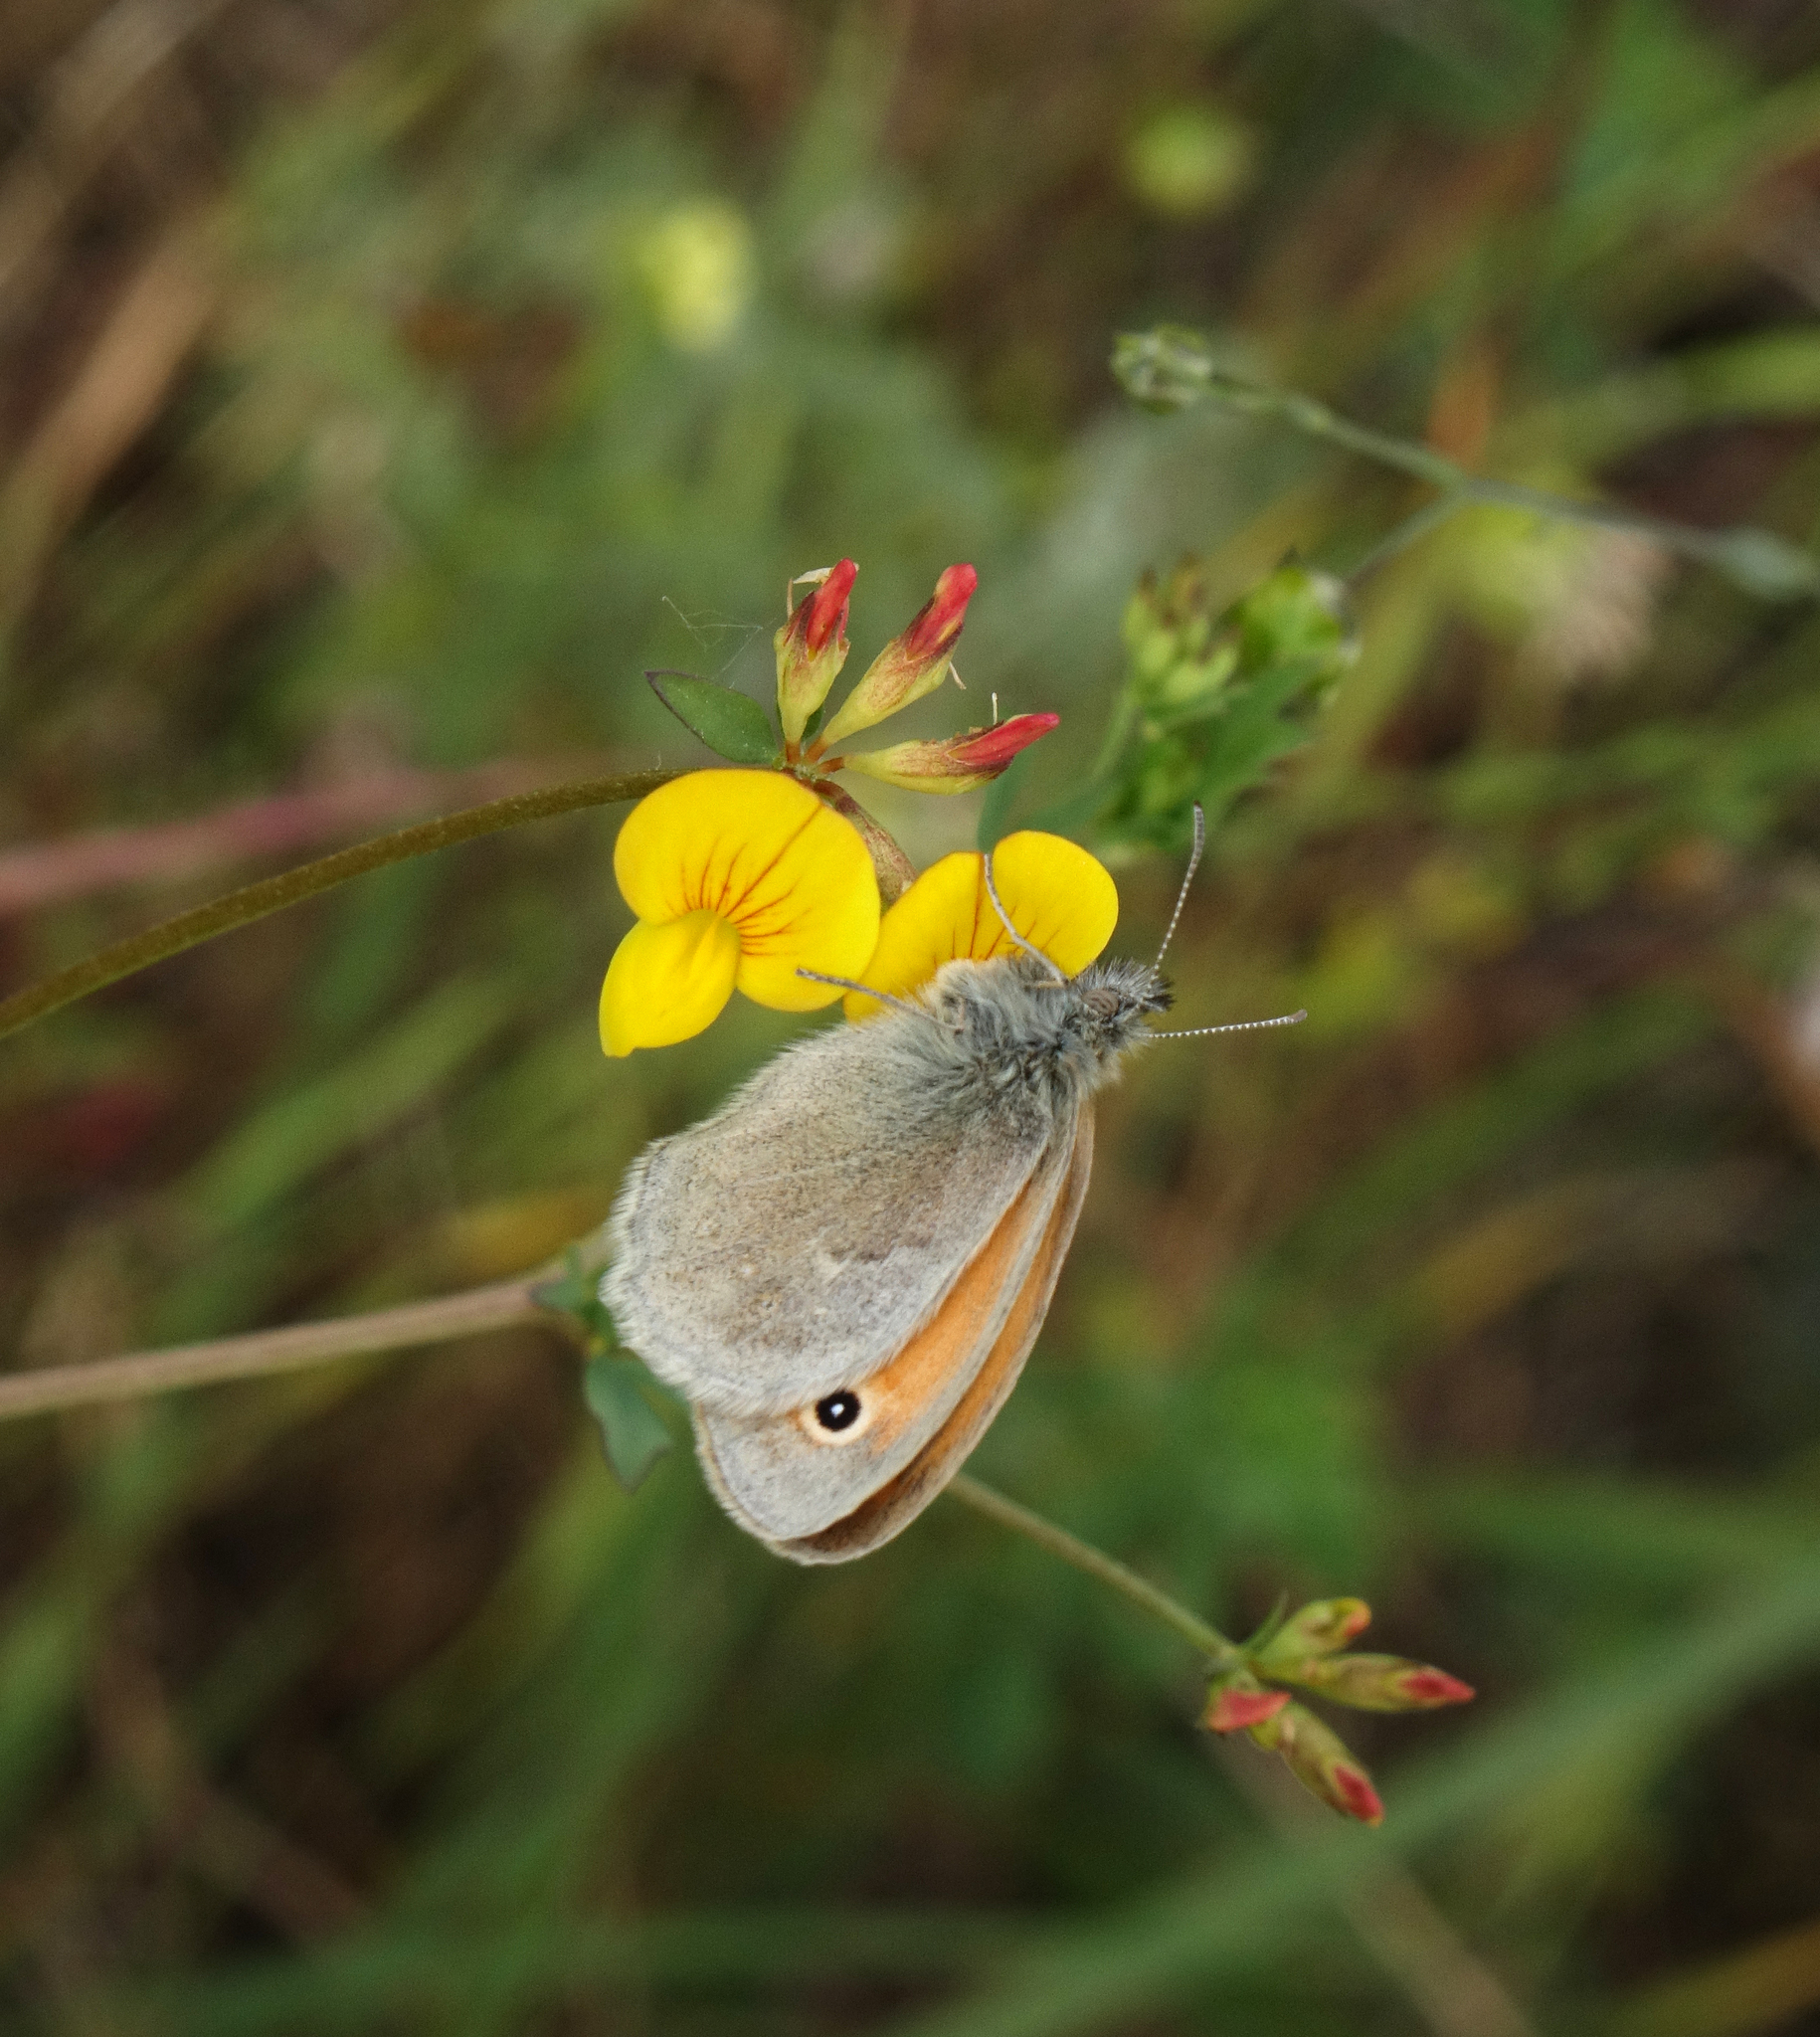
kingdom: Animalia
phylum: Arthropoda
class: Insecta
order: Lepidoptera
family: Nymphalidae
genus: Coenonympha
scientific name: Coenonympha pamphilus
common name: Small heath
